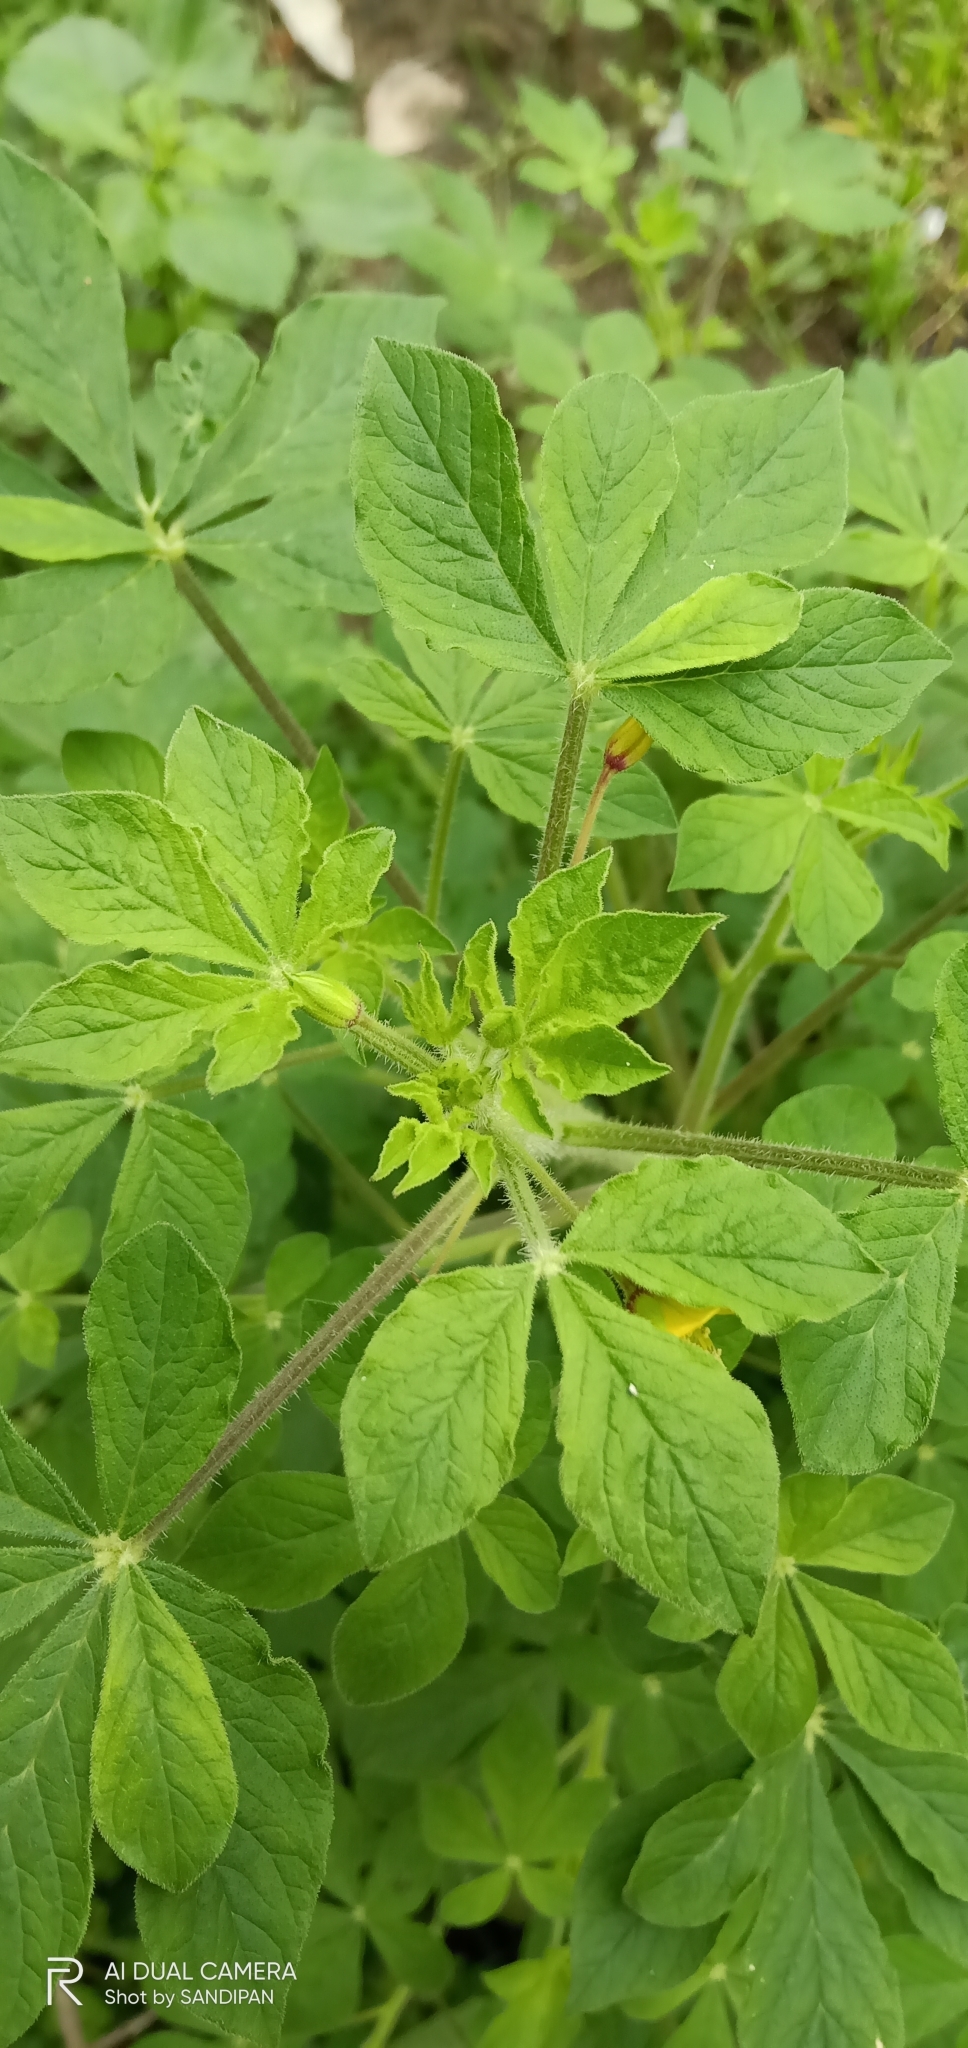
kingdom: Plantae
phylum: Tracheophyta
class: Magnoliopsida
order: Brassicales
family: Cleomaceae
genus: Arivela
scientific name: Arivela viscosa
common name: Asian spiderflower
